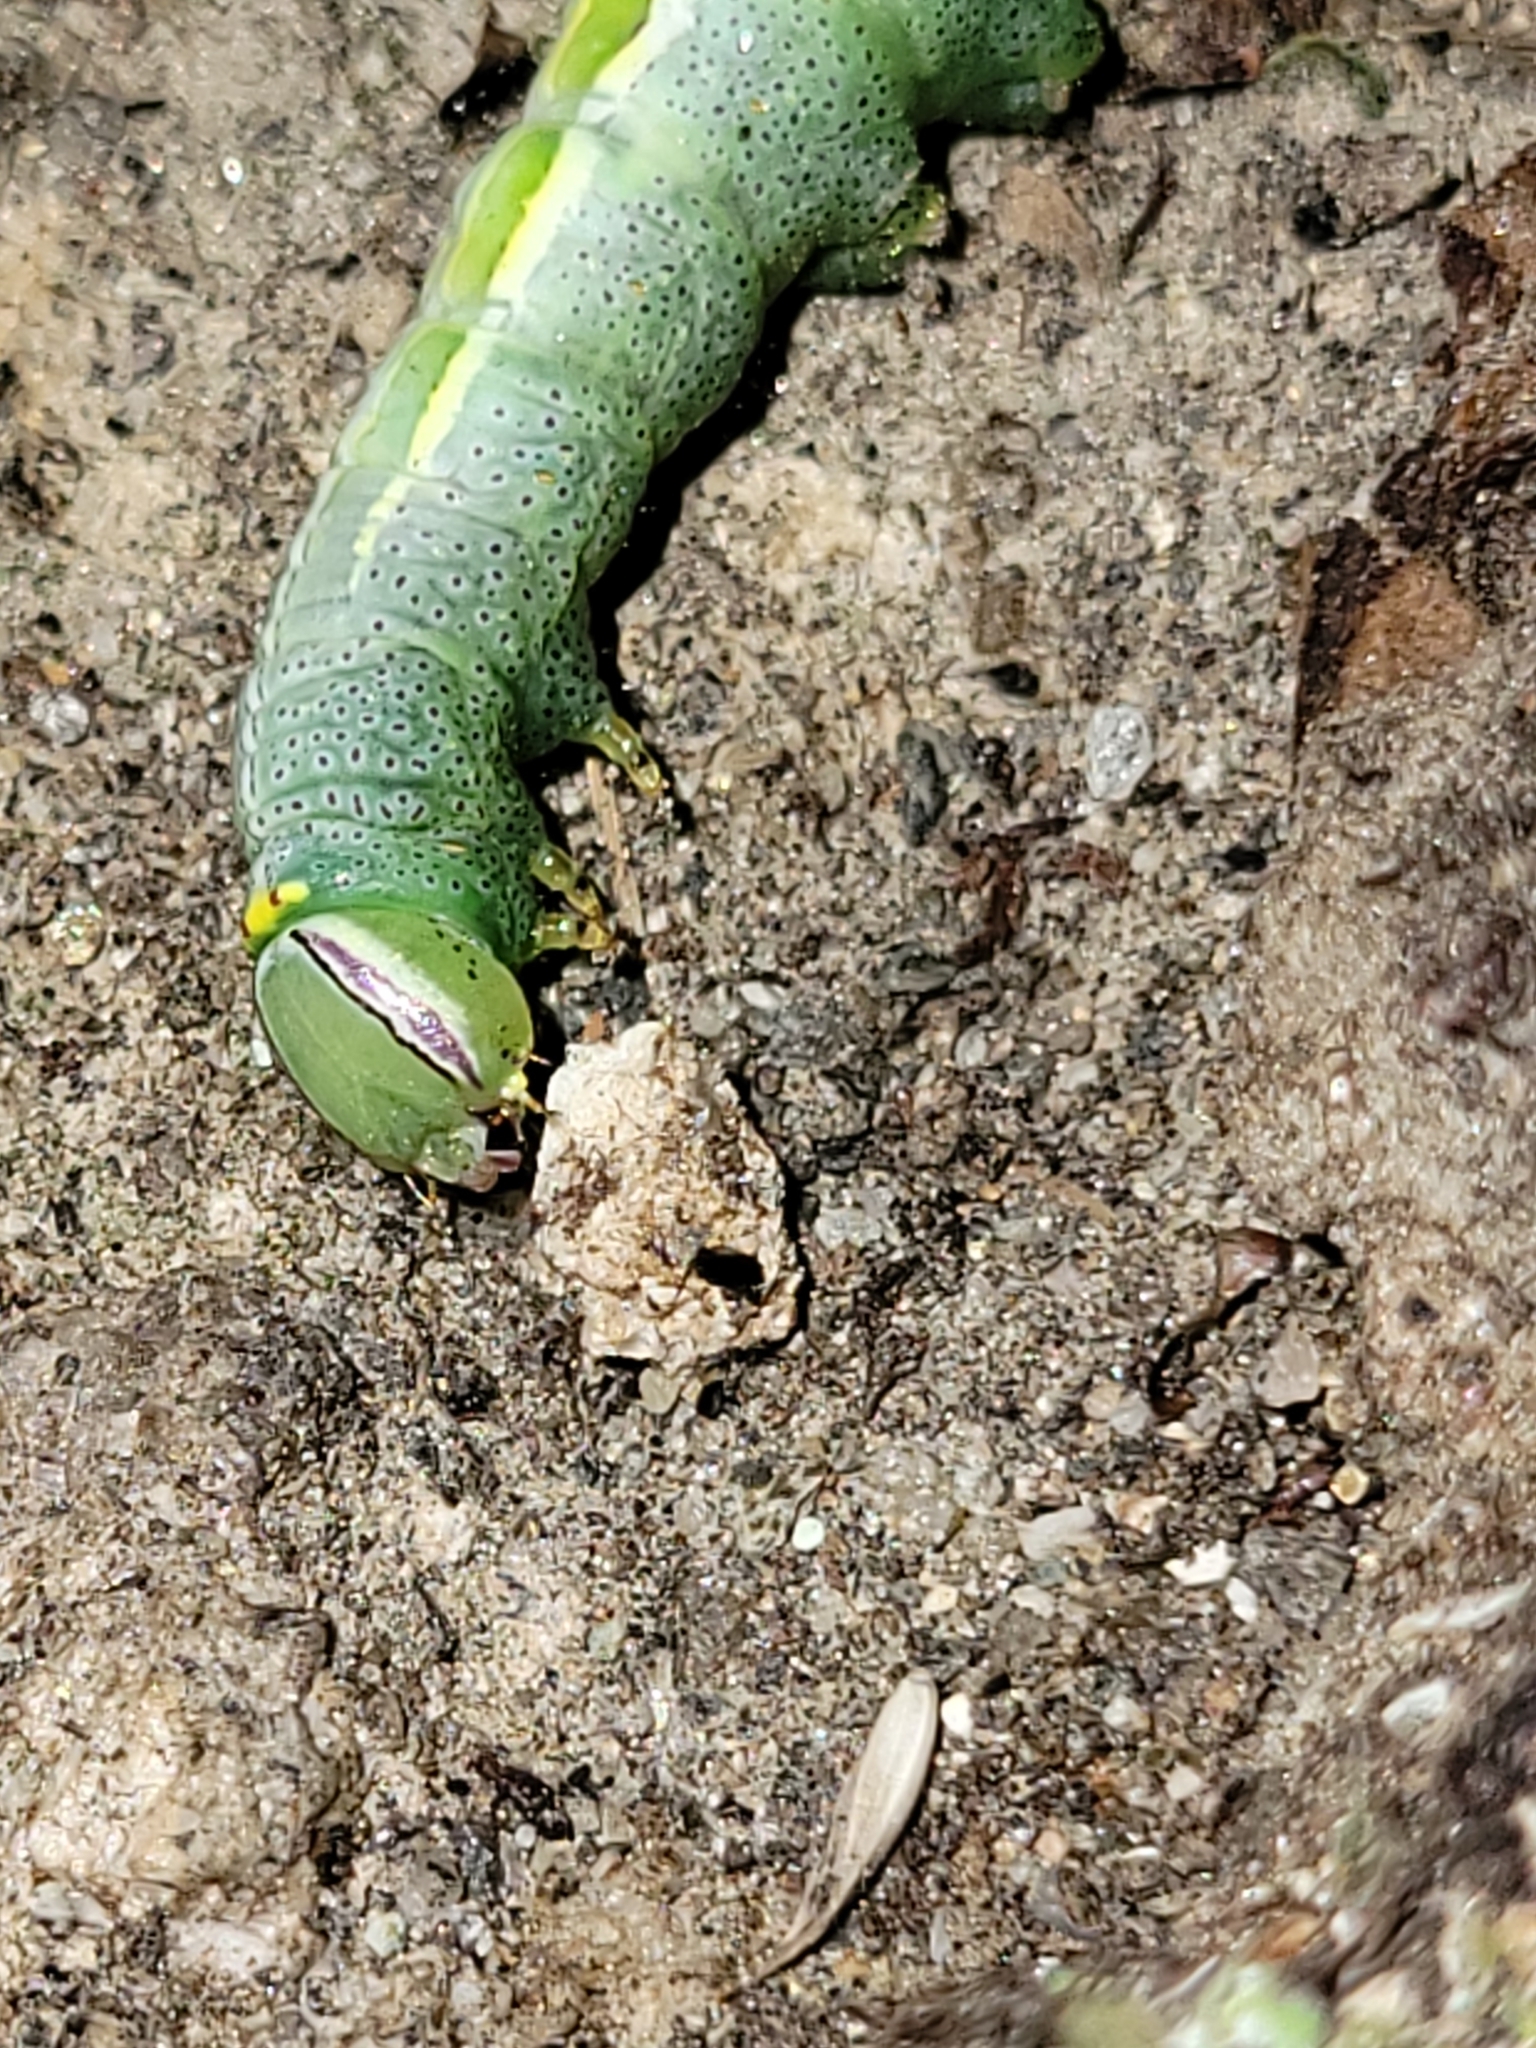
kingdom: Animalia
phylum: Arthropoda
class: Insecta
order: Lepidoptera
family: Notodontidae
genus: Disphragis
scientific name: Disphragis Cecrita guttivitta
